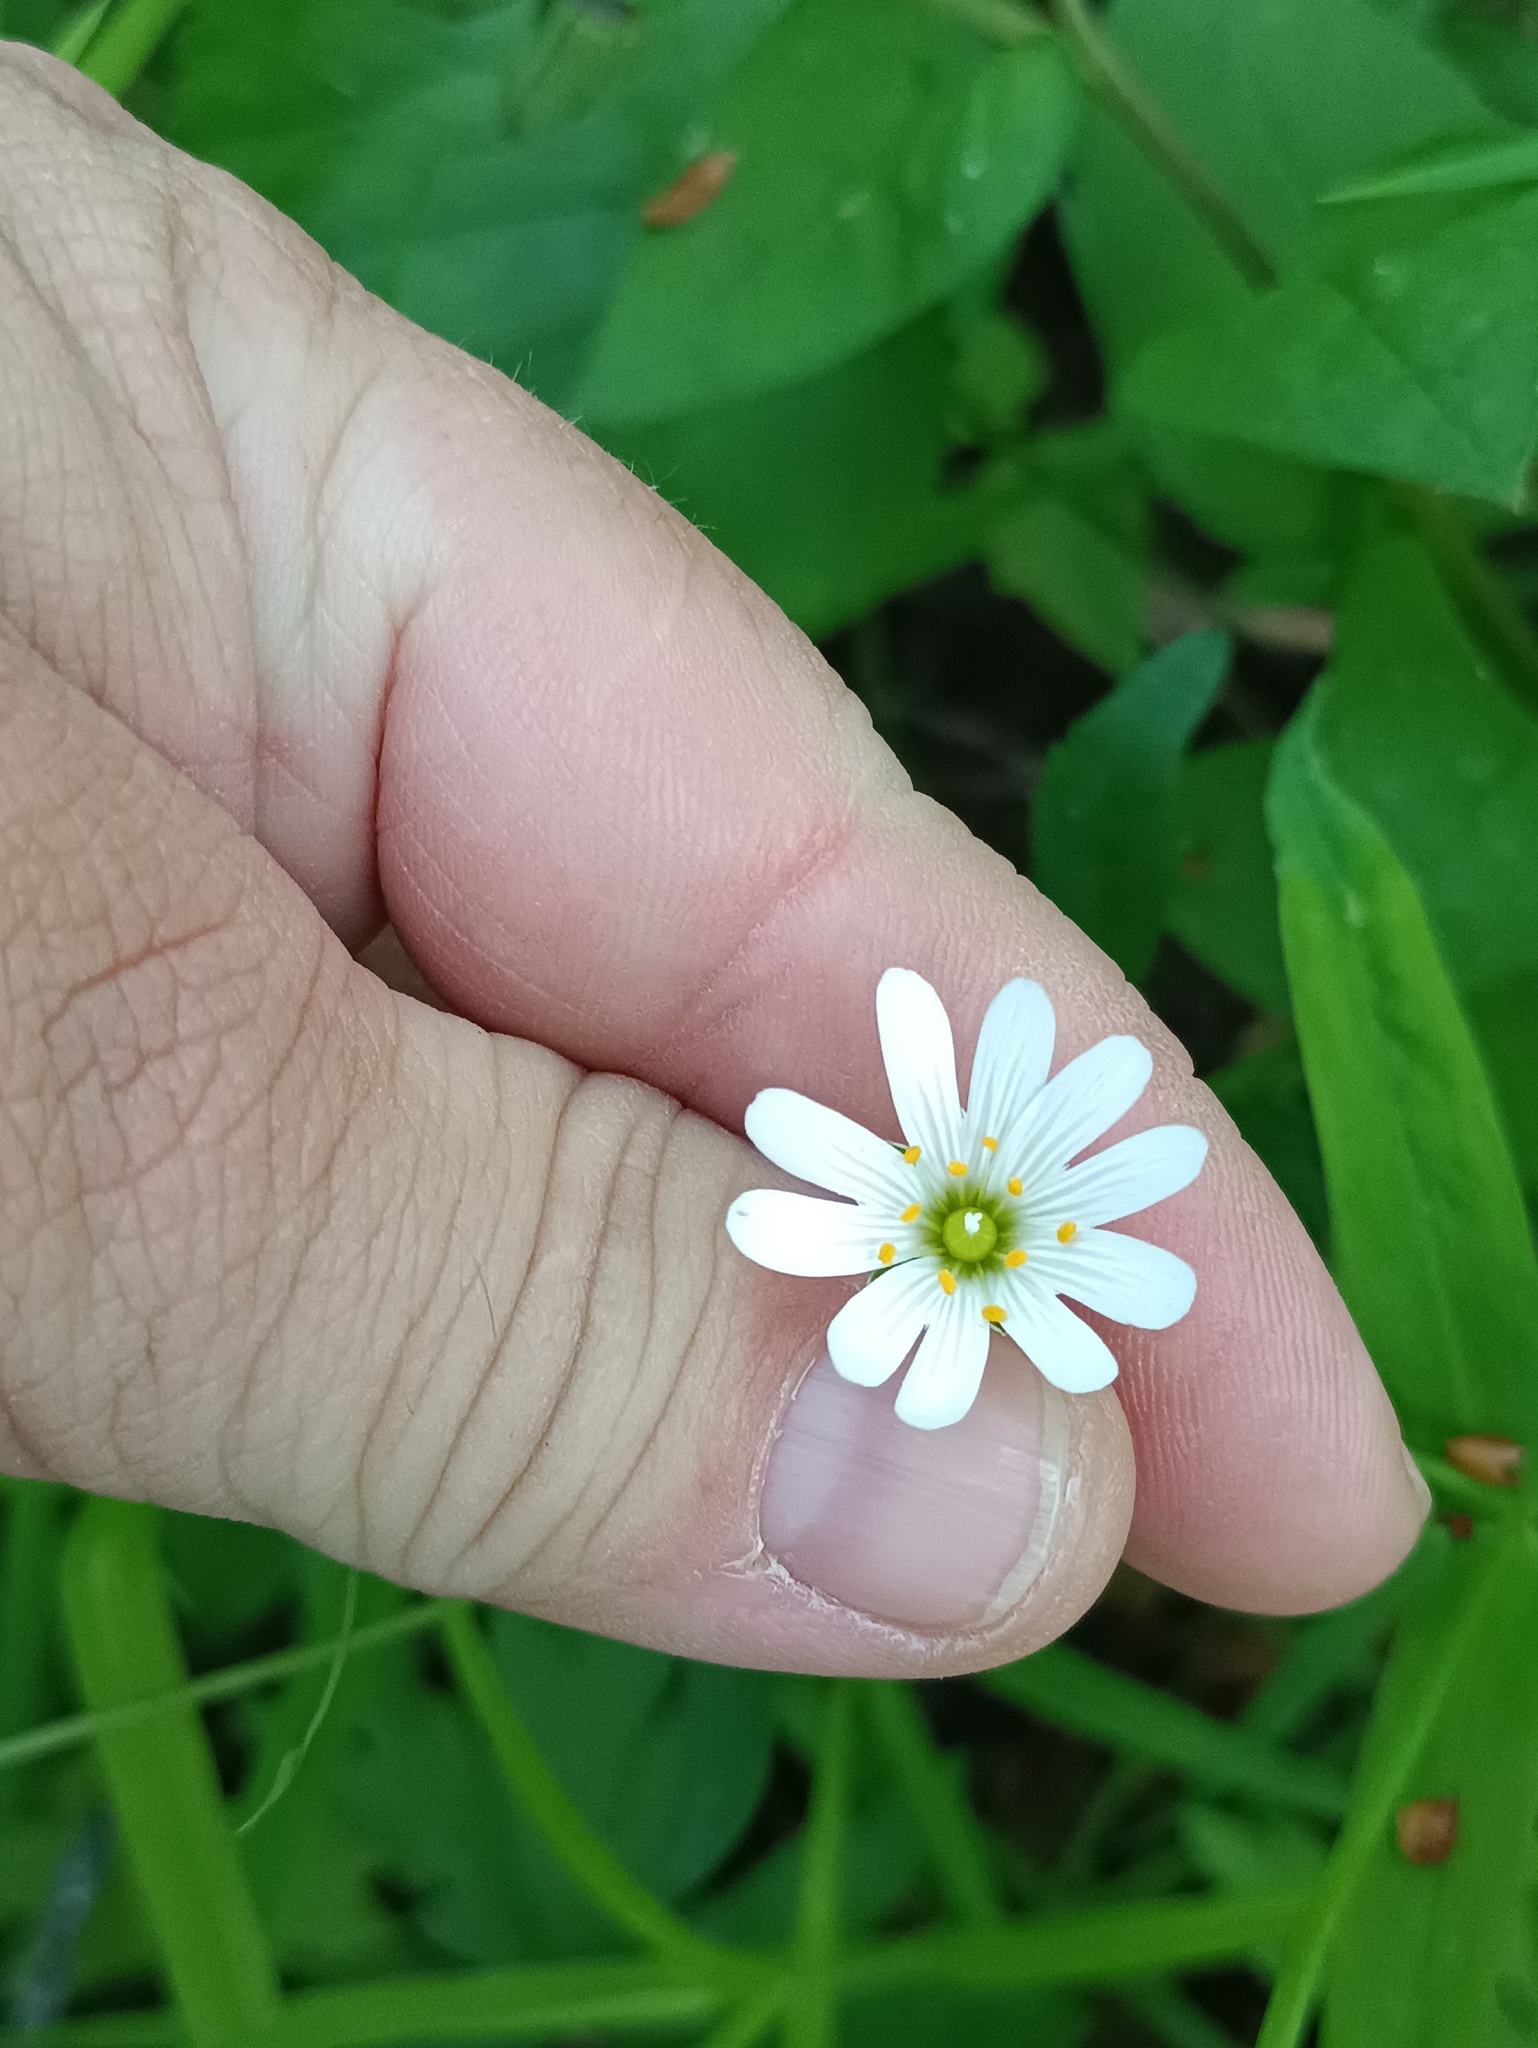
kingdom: Plantae
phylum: Tracheophyta
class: Magnoliopsida
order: Caryophyllales
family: Caryophyllaceae
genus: Rabelera
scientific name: Rabelera holostea
